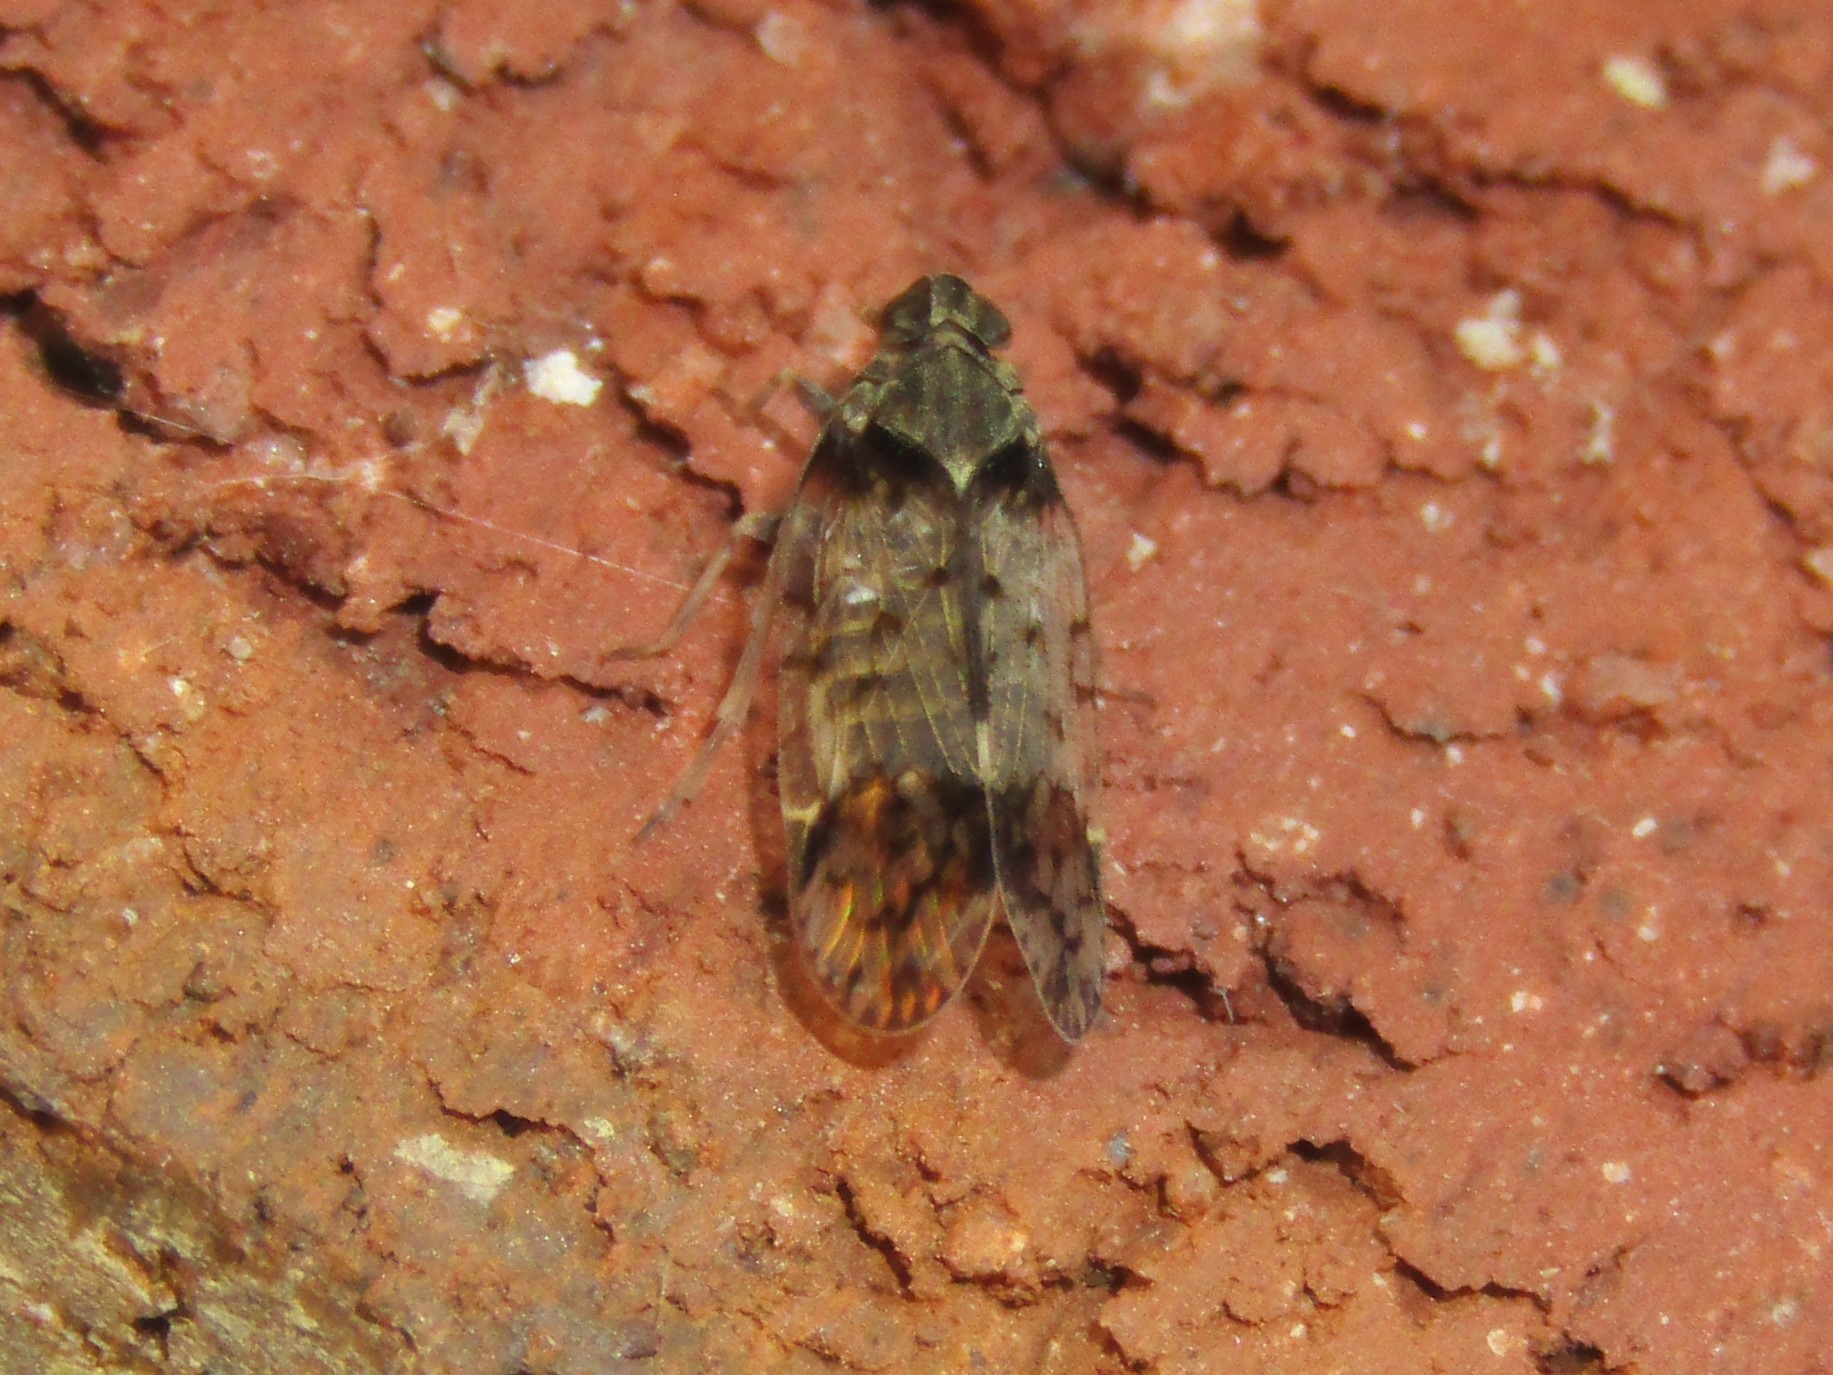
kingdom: Animalia
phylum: Arthropoda
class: Insecta
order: Hemiptera
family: Cixiidae
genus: Melanoliarus
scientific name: Melanoliarus placitus
